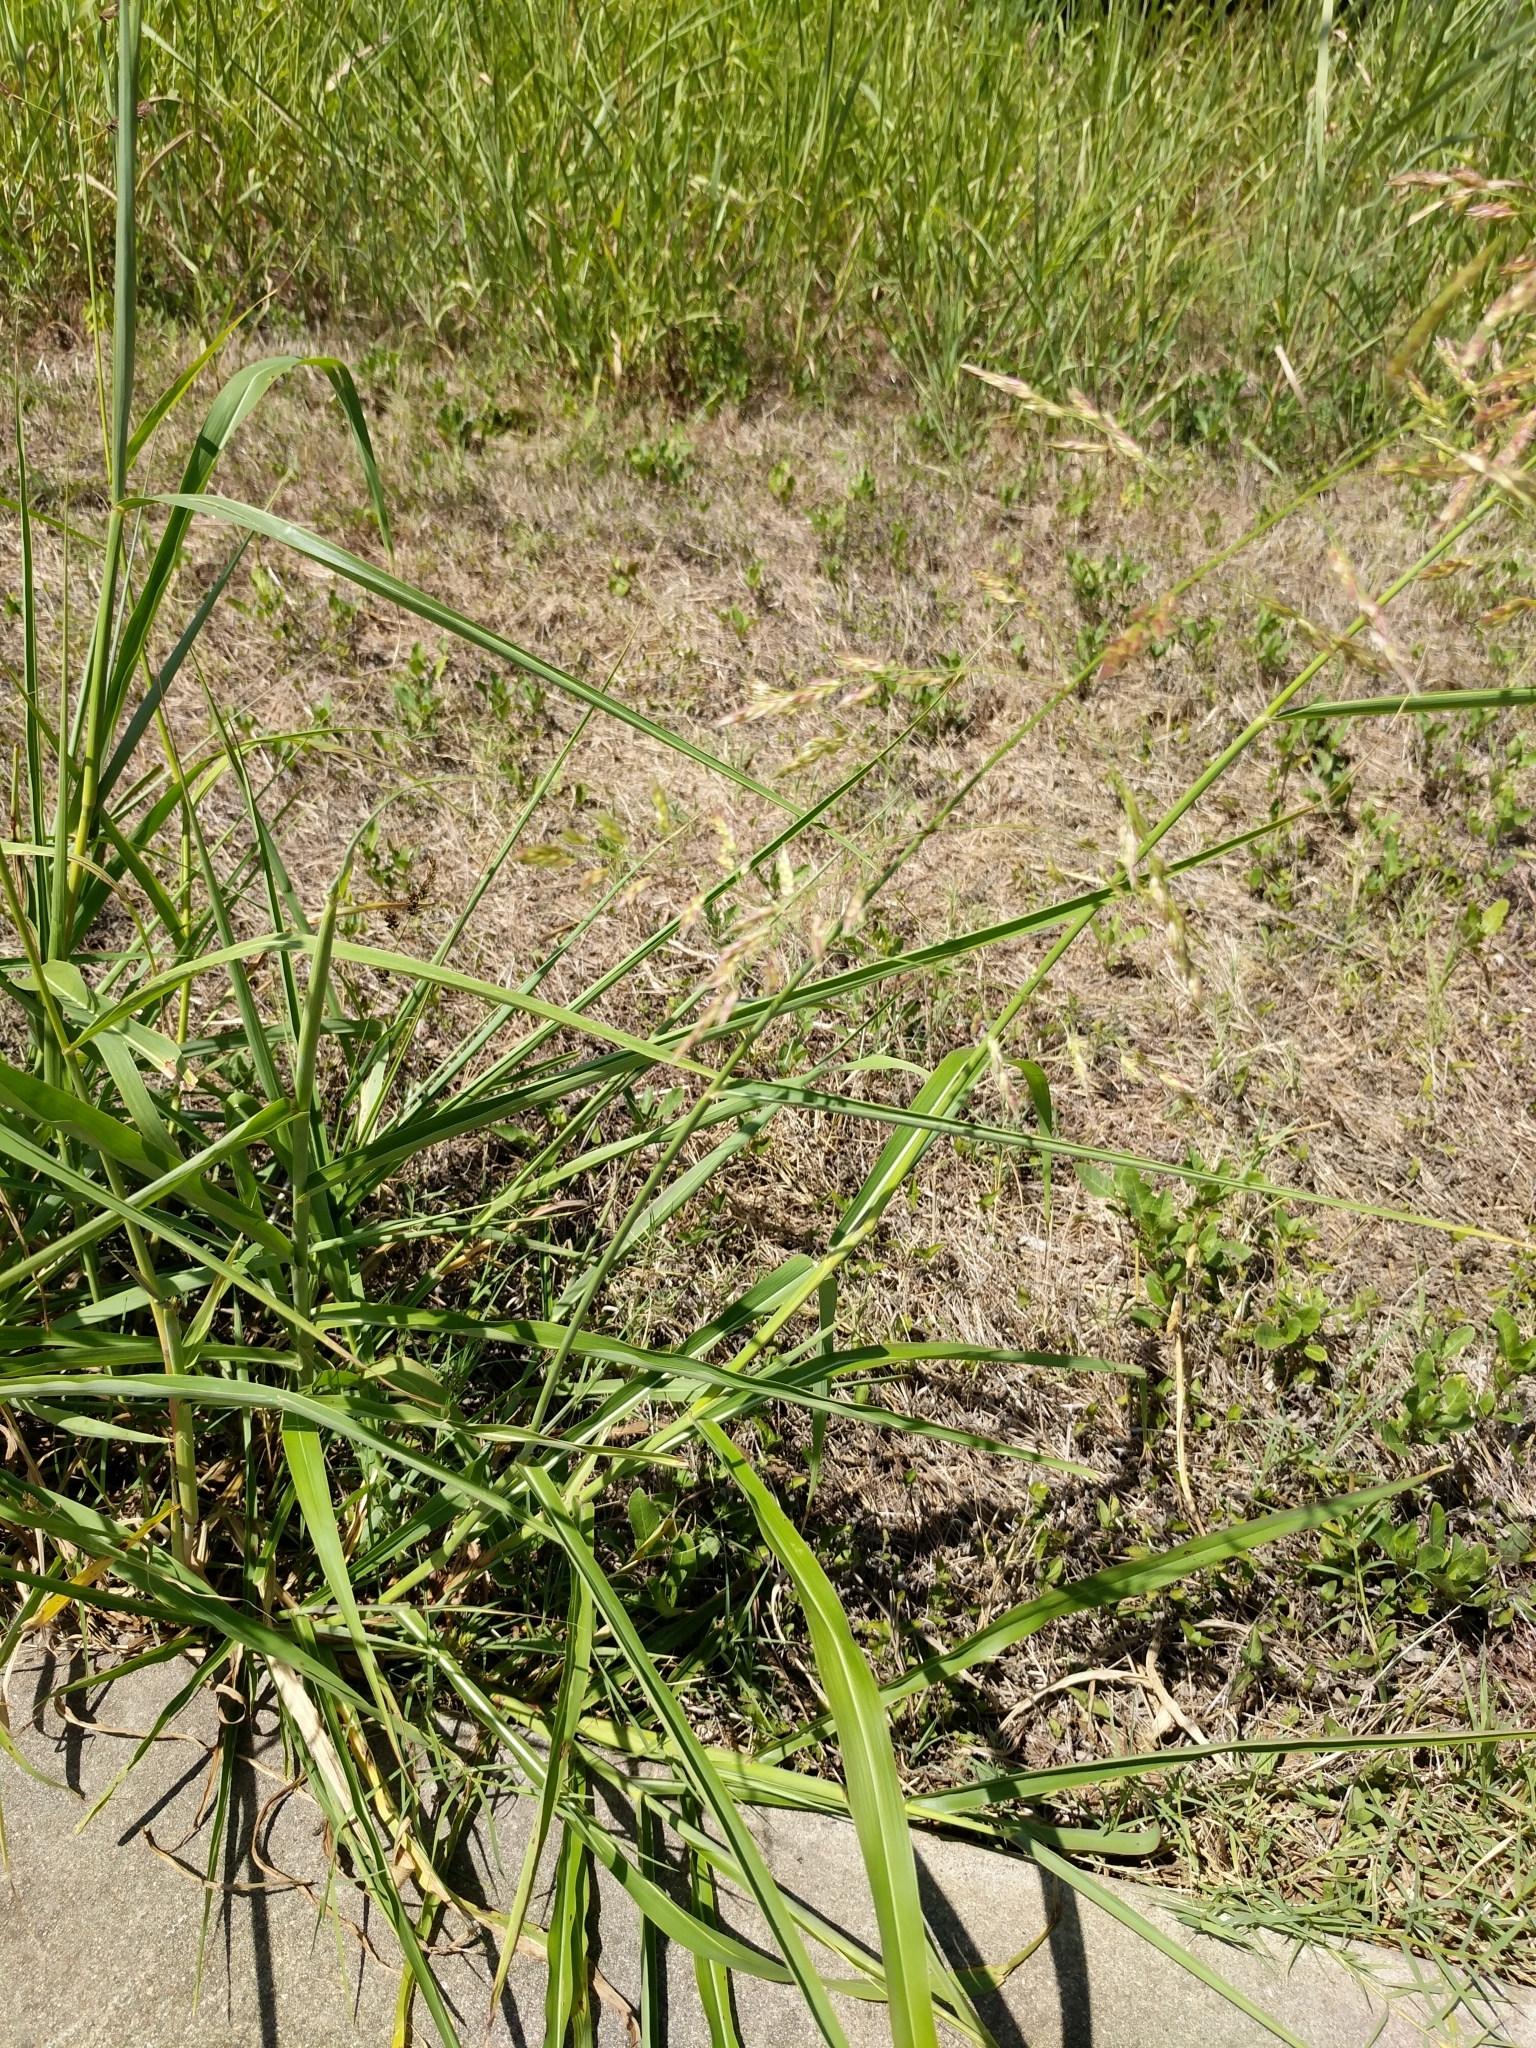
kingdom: Plantae
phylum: Tracheophyta
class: Liliopsida
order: Poales
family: Poaceae
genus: Sorghum
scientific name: Sorghum halepense
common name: Johnson-grass
